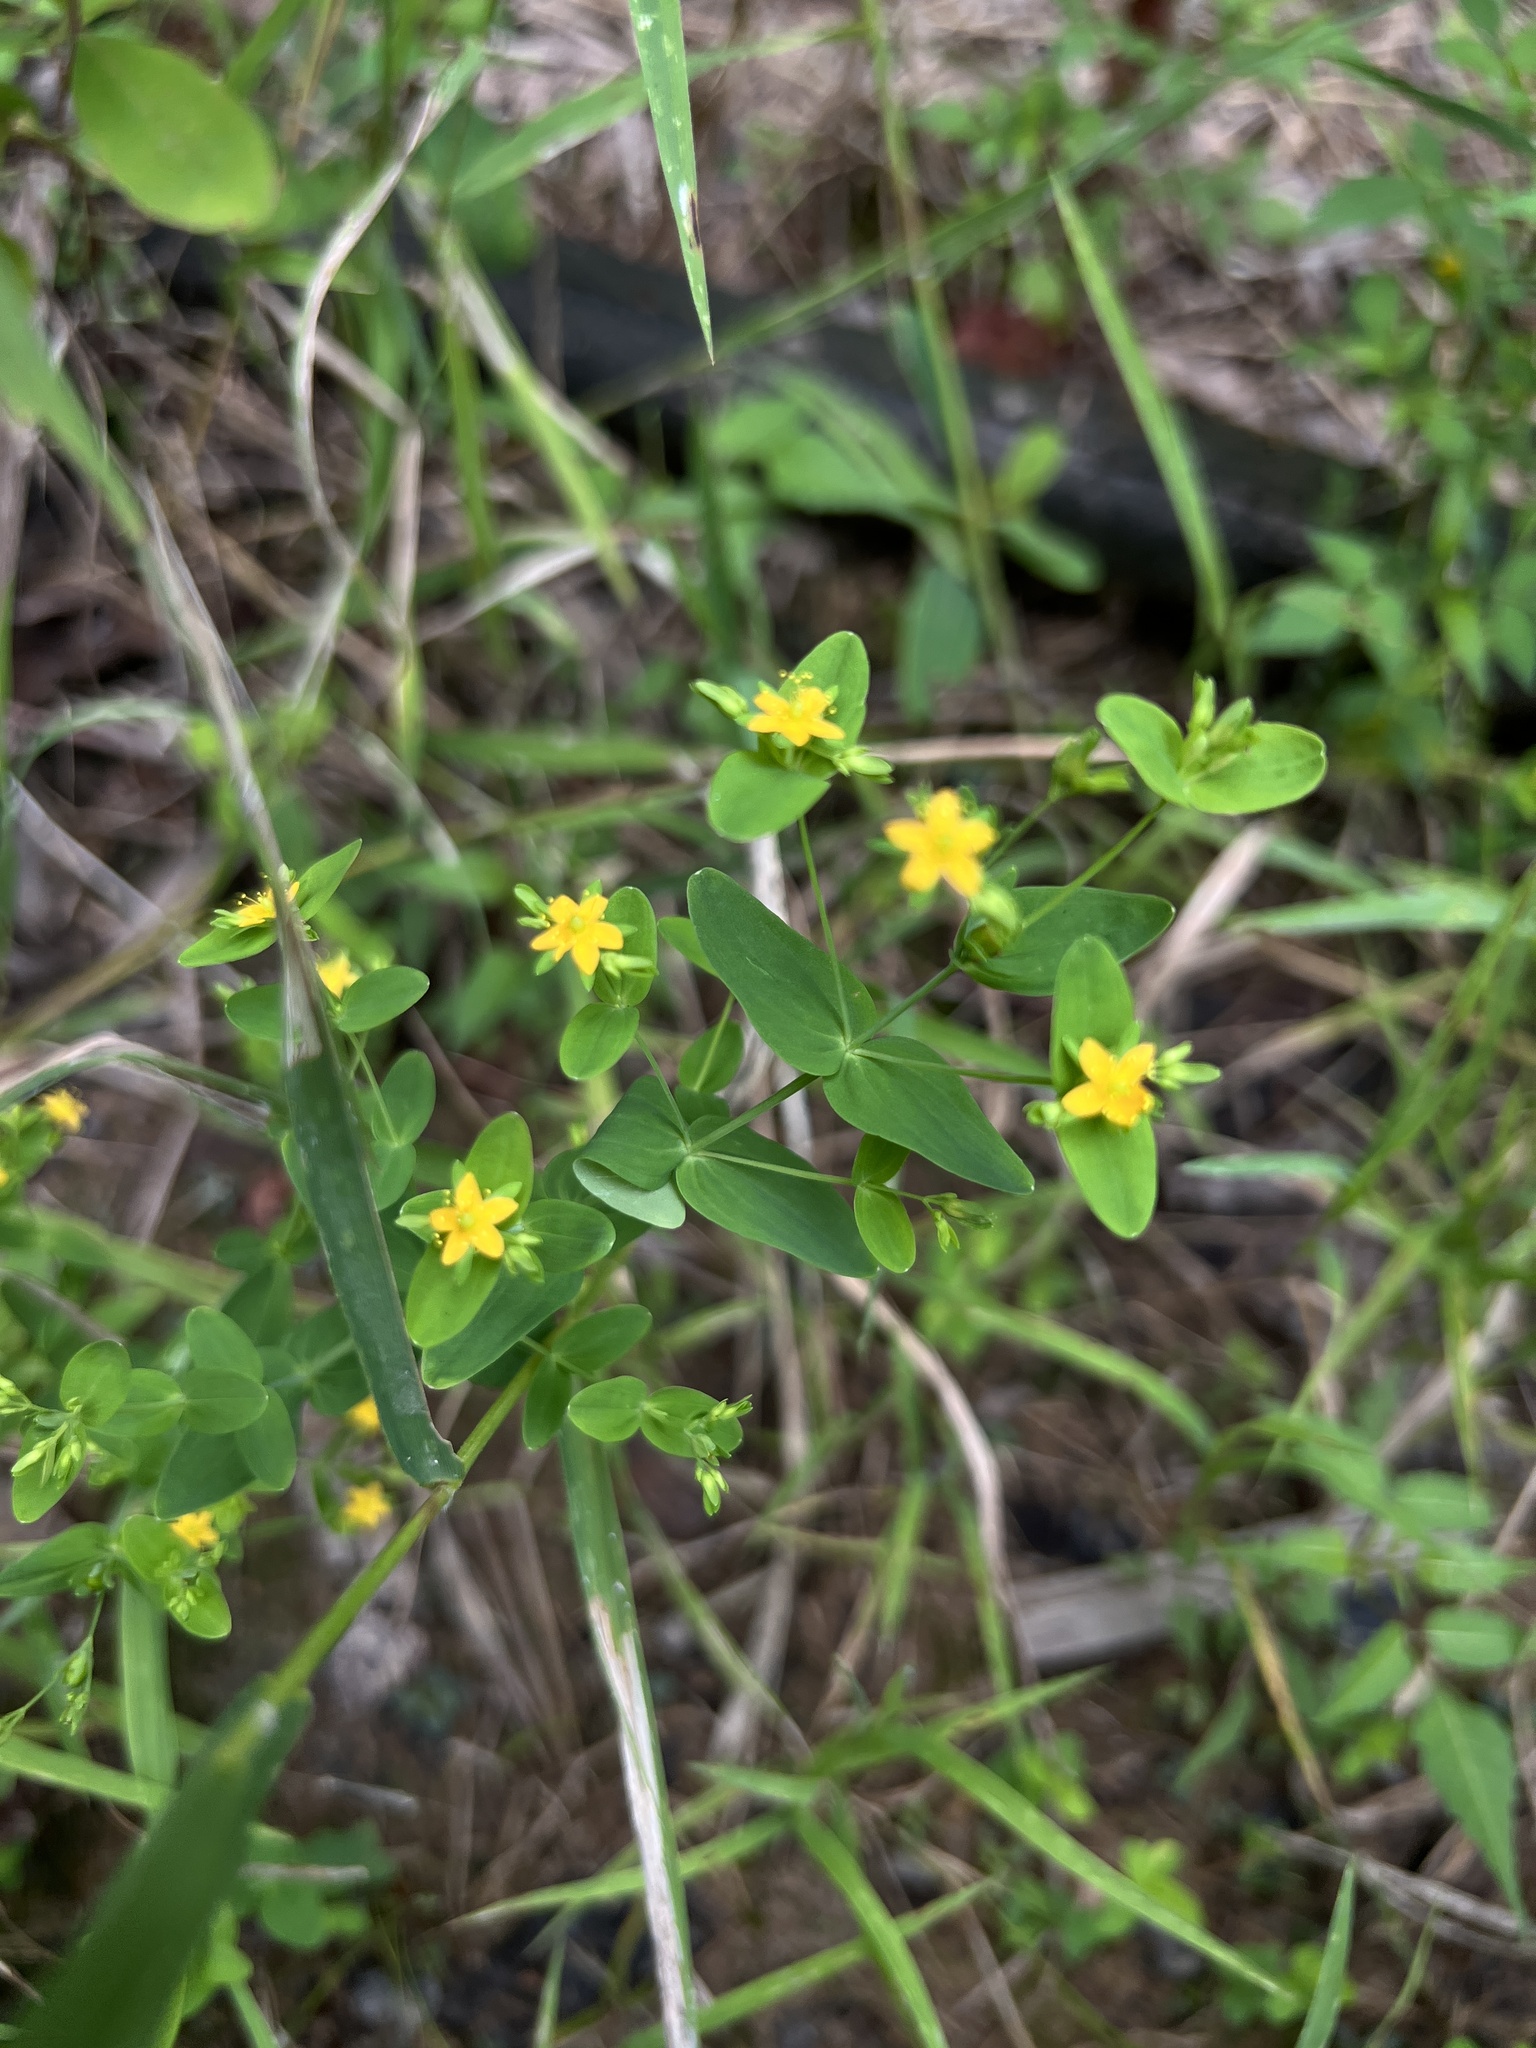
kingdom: Plantae
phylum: Tracheophyta
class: Magnoliopsida
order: Malpighiales
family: Hypericaceae
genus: Hypericum
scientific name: Hypericum mutilum
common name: Dwarf st. john's-wort
